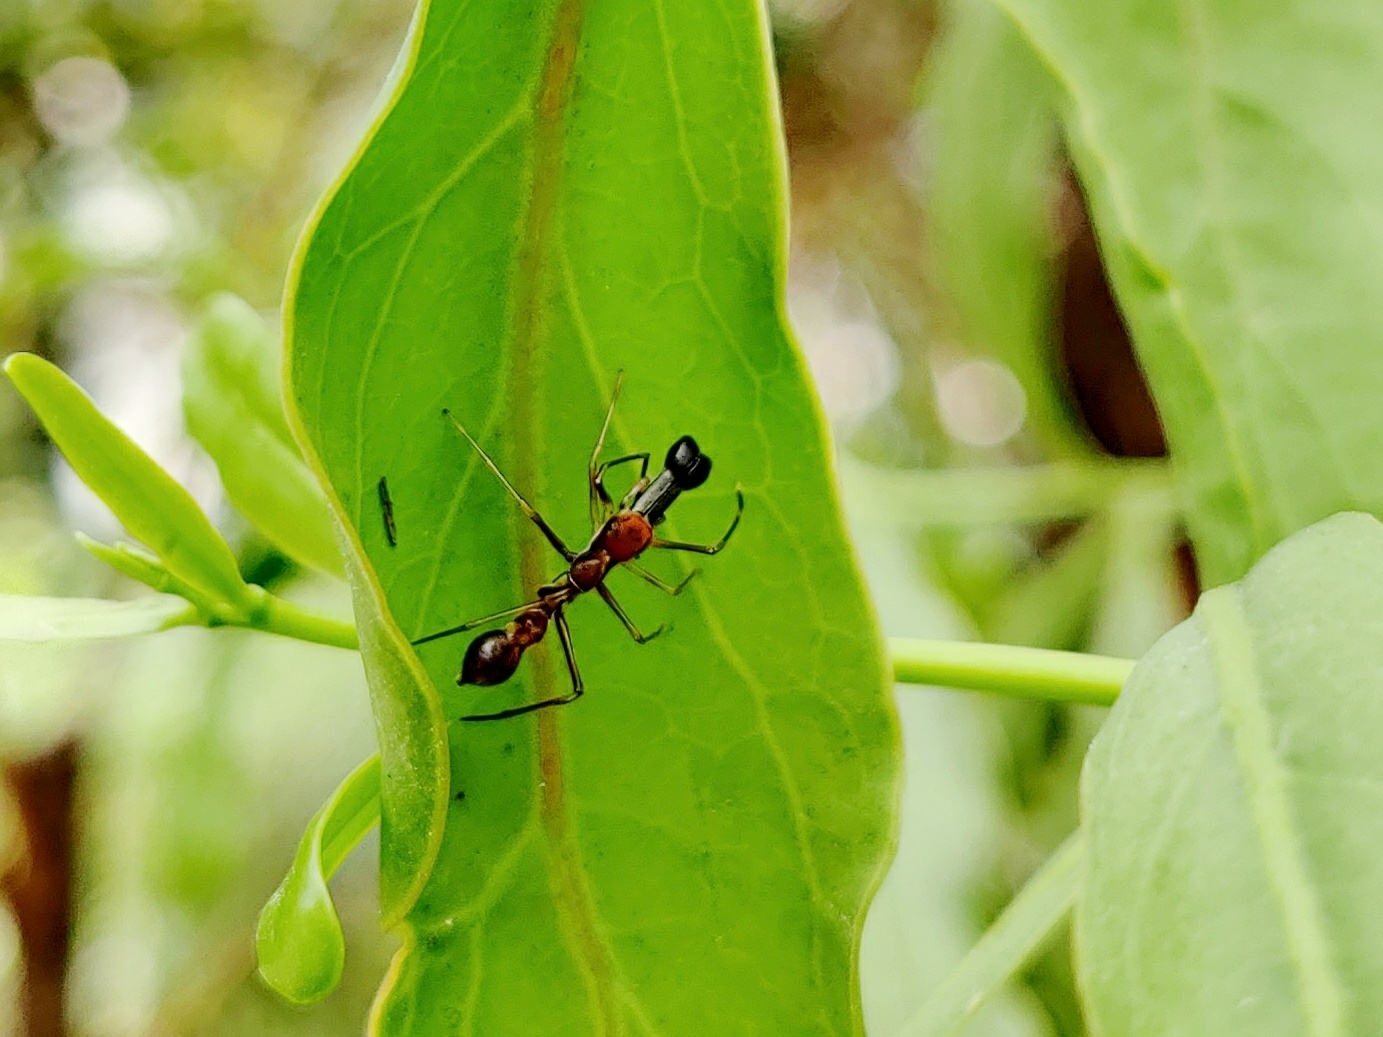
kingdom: Animalia
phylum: Arthropoda
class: Arachnida
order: Araneae
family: Salticidae
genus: Myrmaplata
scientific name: Myrmaplata plataleoides
